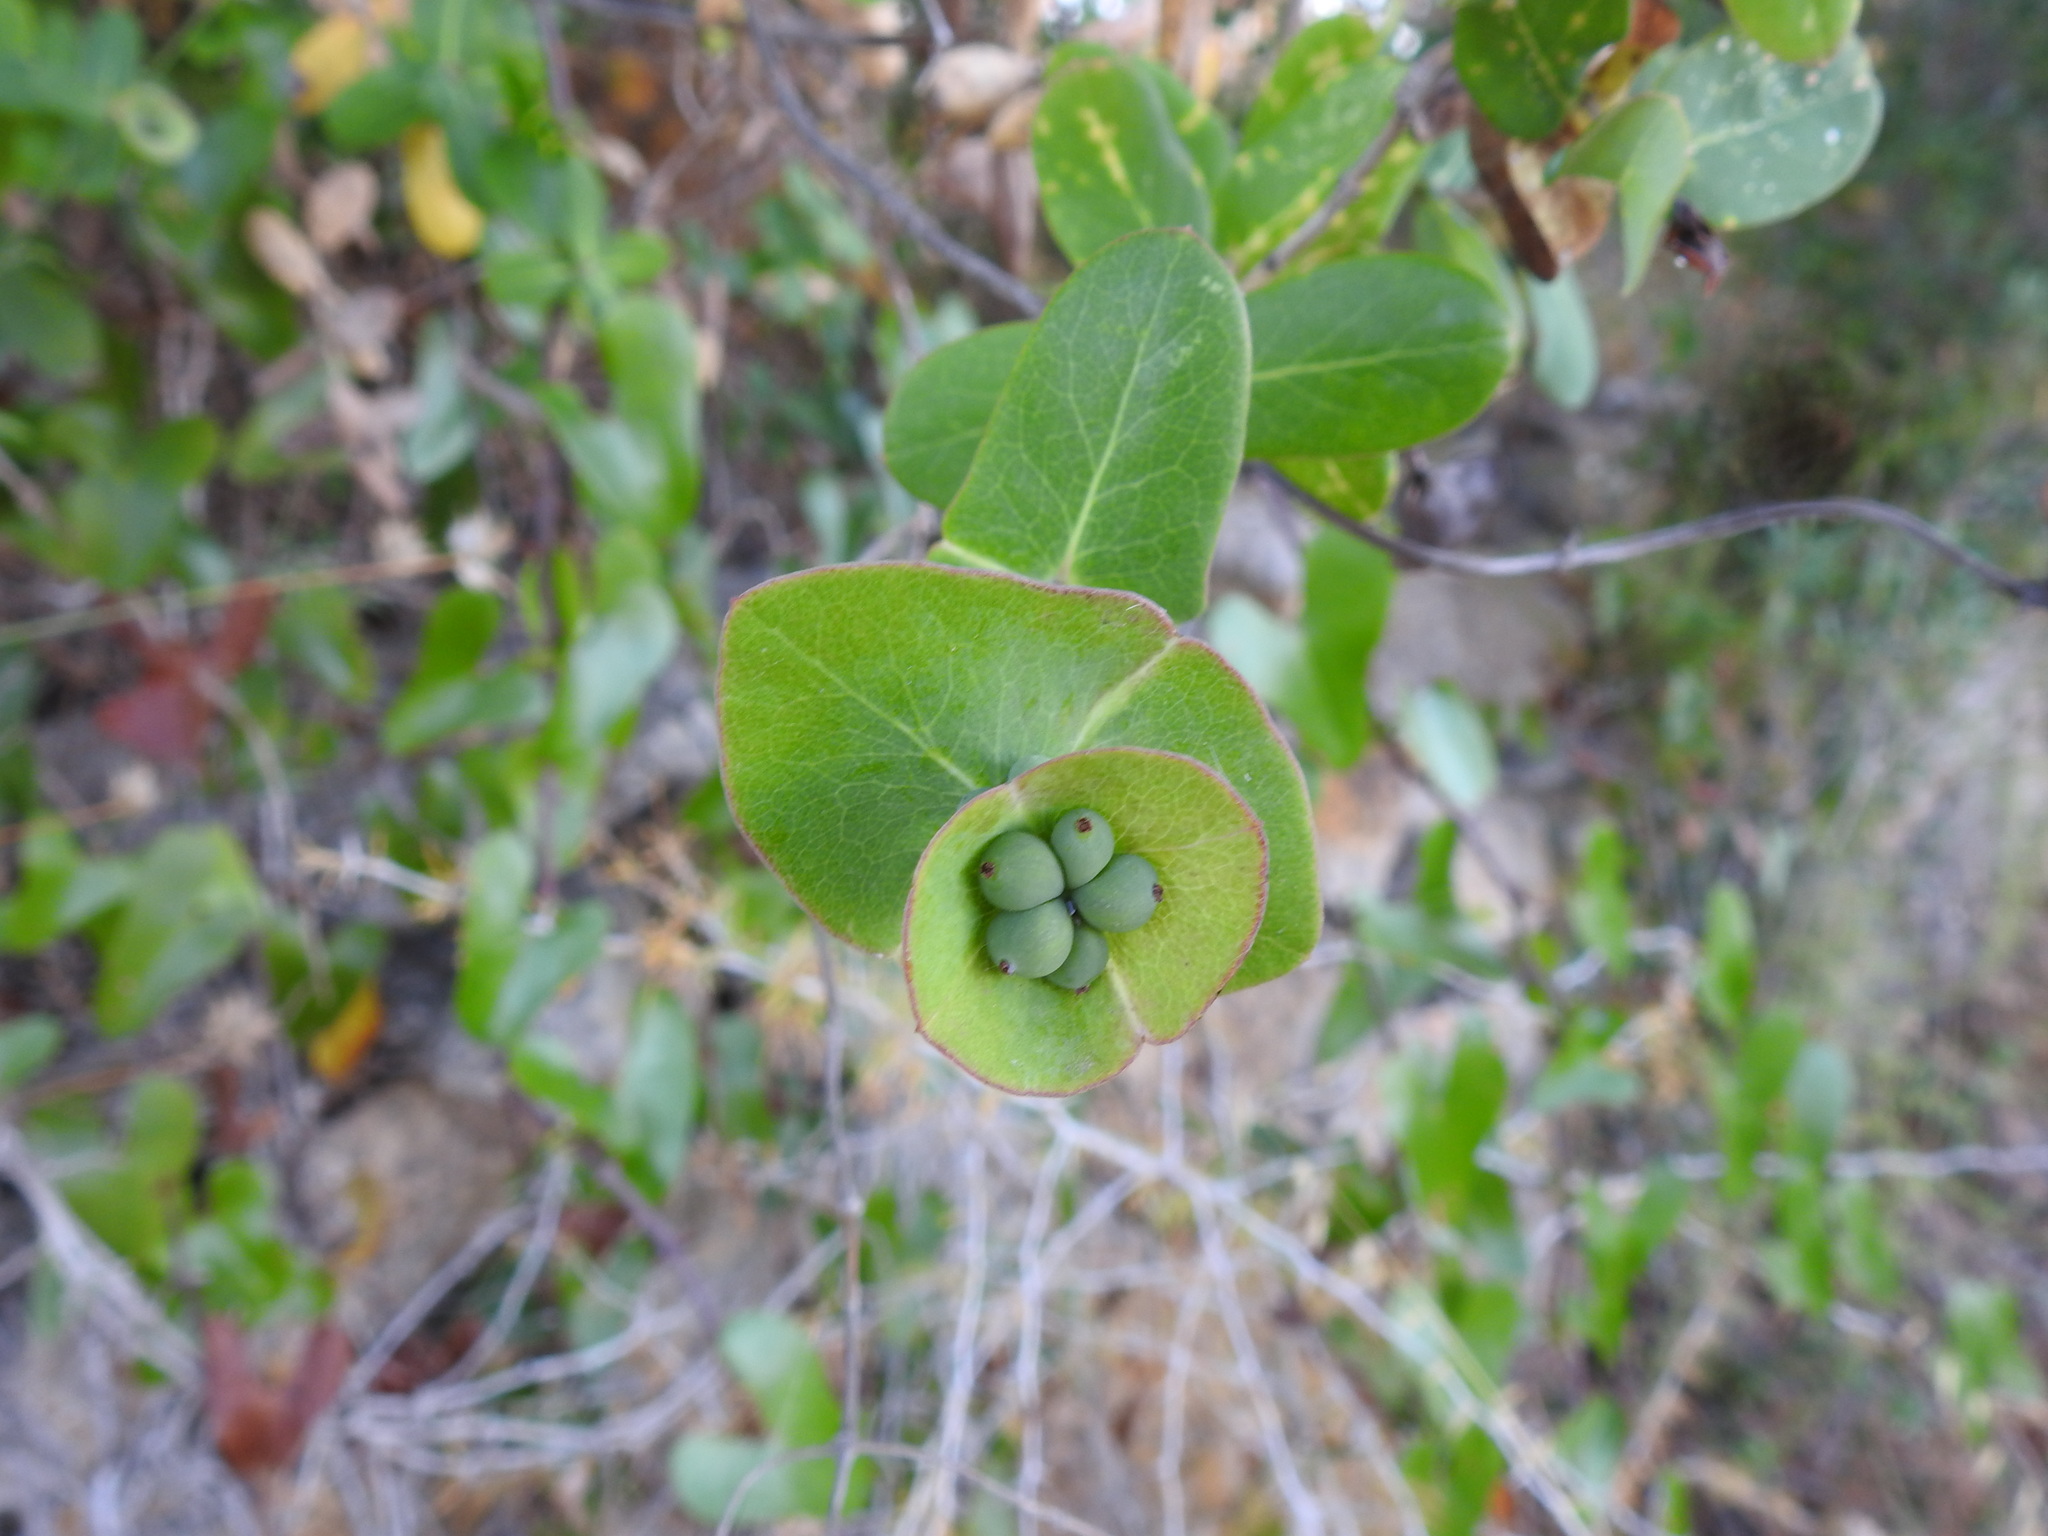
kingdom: Plantae
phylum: Tracheophyta
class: Magnoliopsida
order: Dipsacales
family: Caprifoliaceae
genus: Lonicera
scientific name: Lonicera implexa
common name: Minorca honeysuckle
